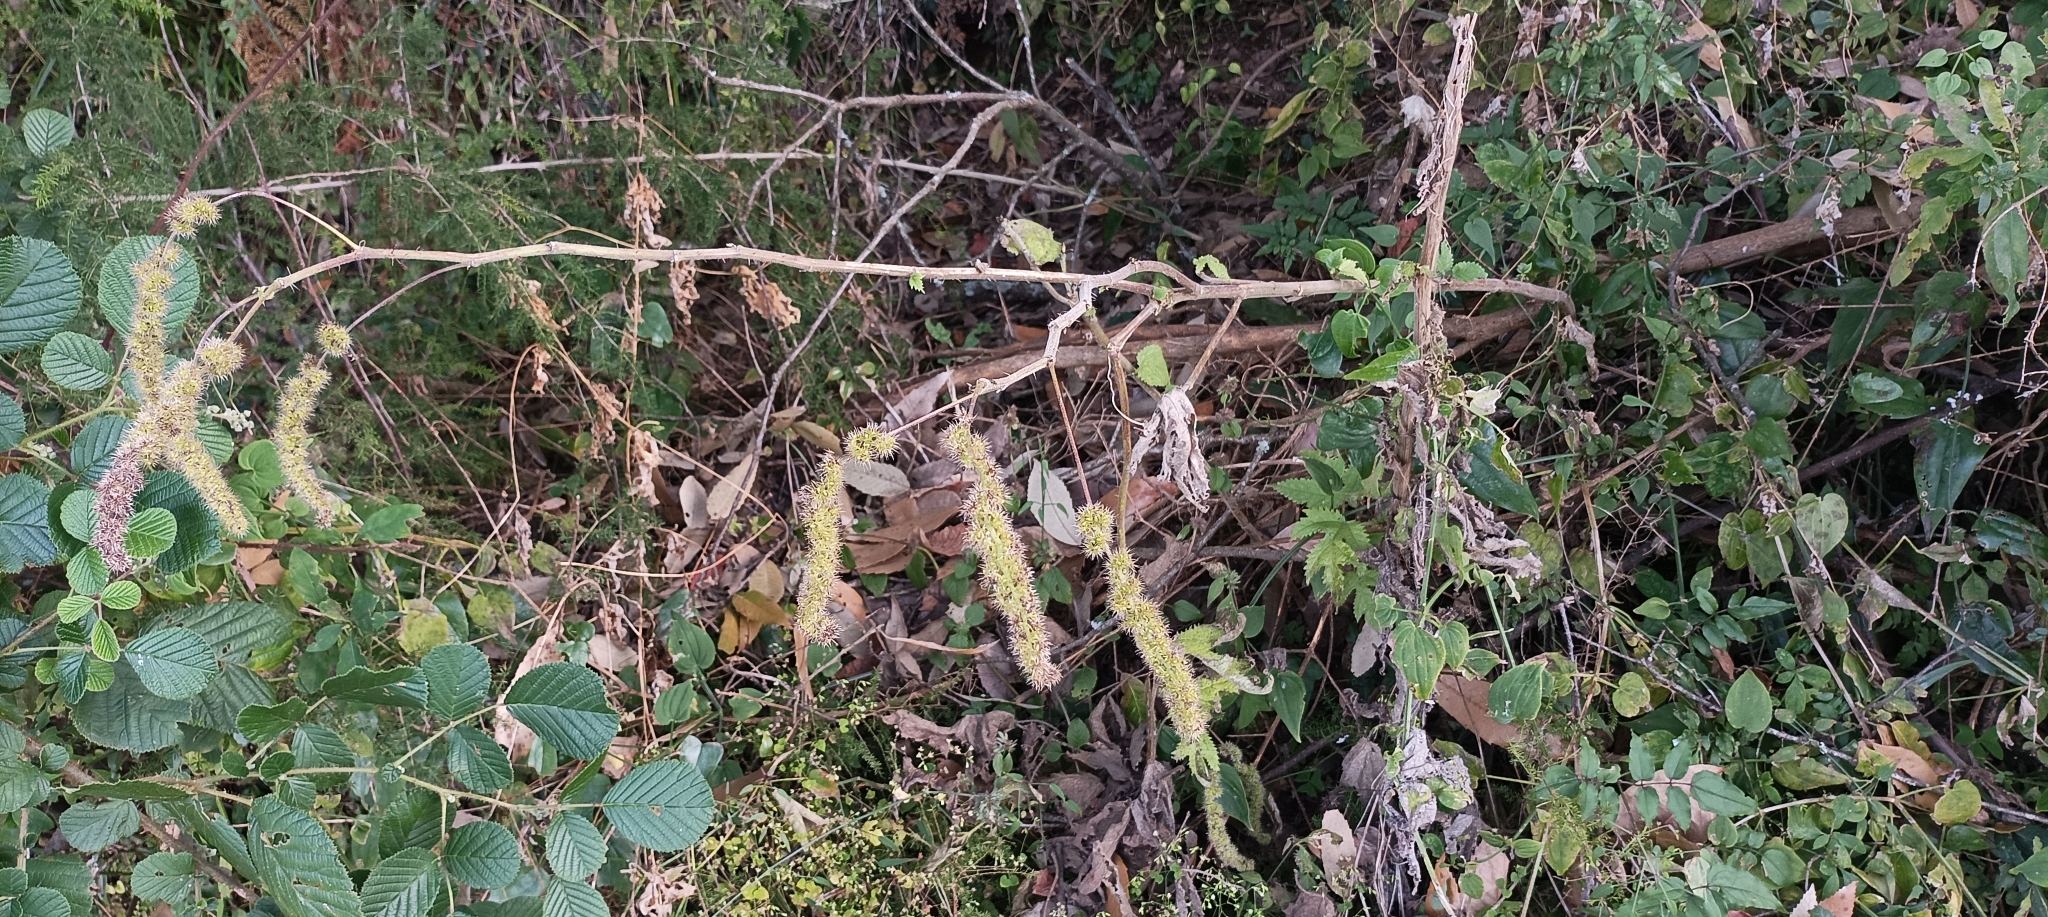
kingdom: Plantae
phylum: Tracheophyta
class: Magnoliopsida
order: Rosales
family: Urticaceae
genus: Girardinia
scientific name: Girardinia diversifolia
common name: Himalayan-nettle
